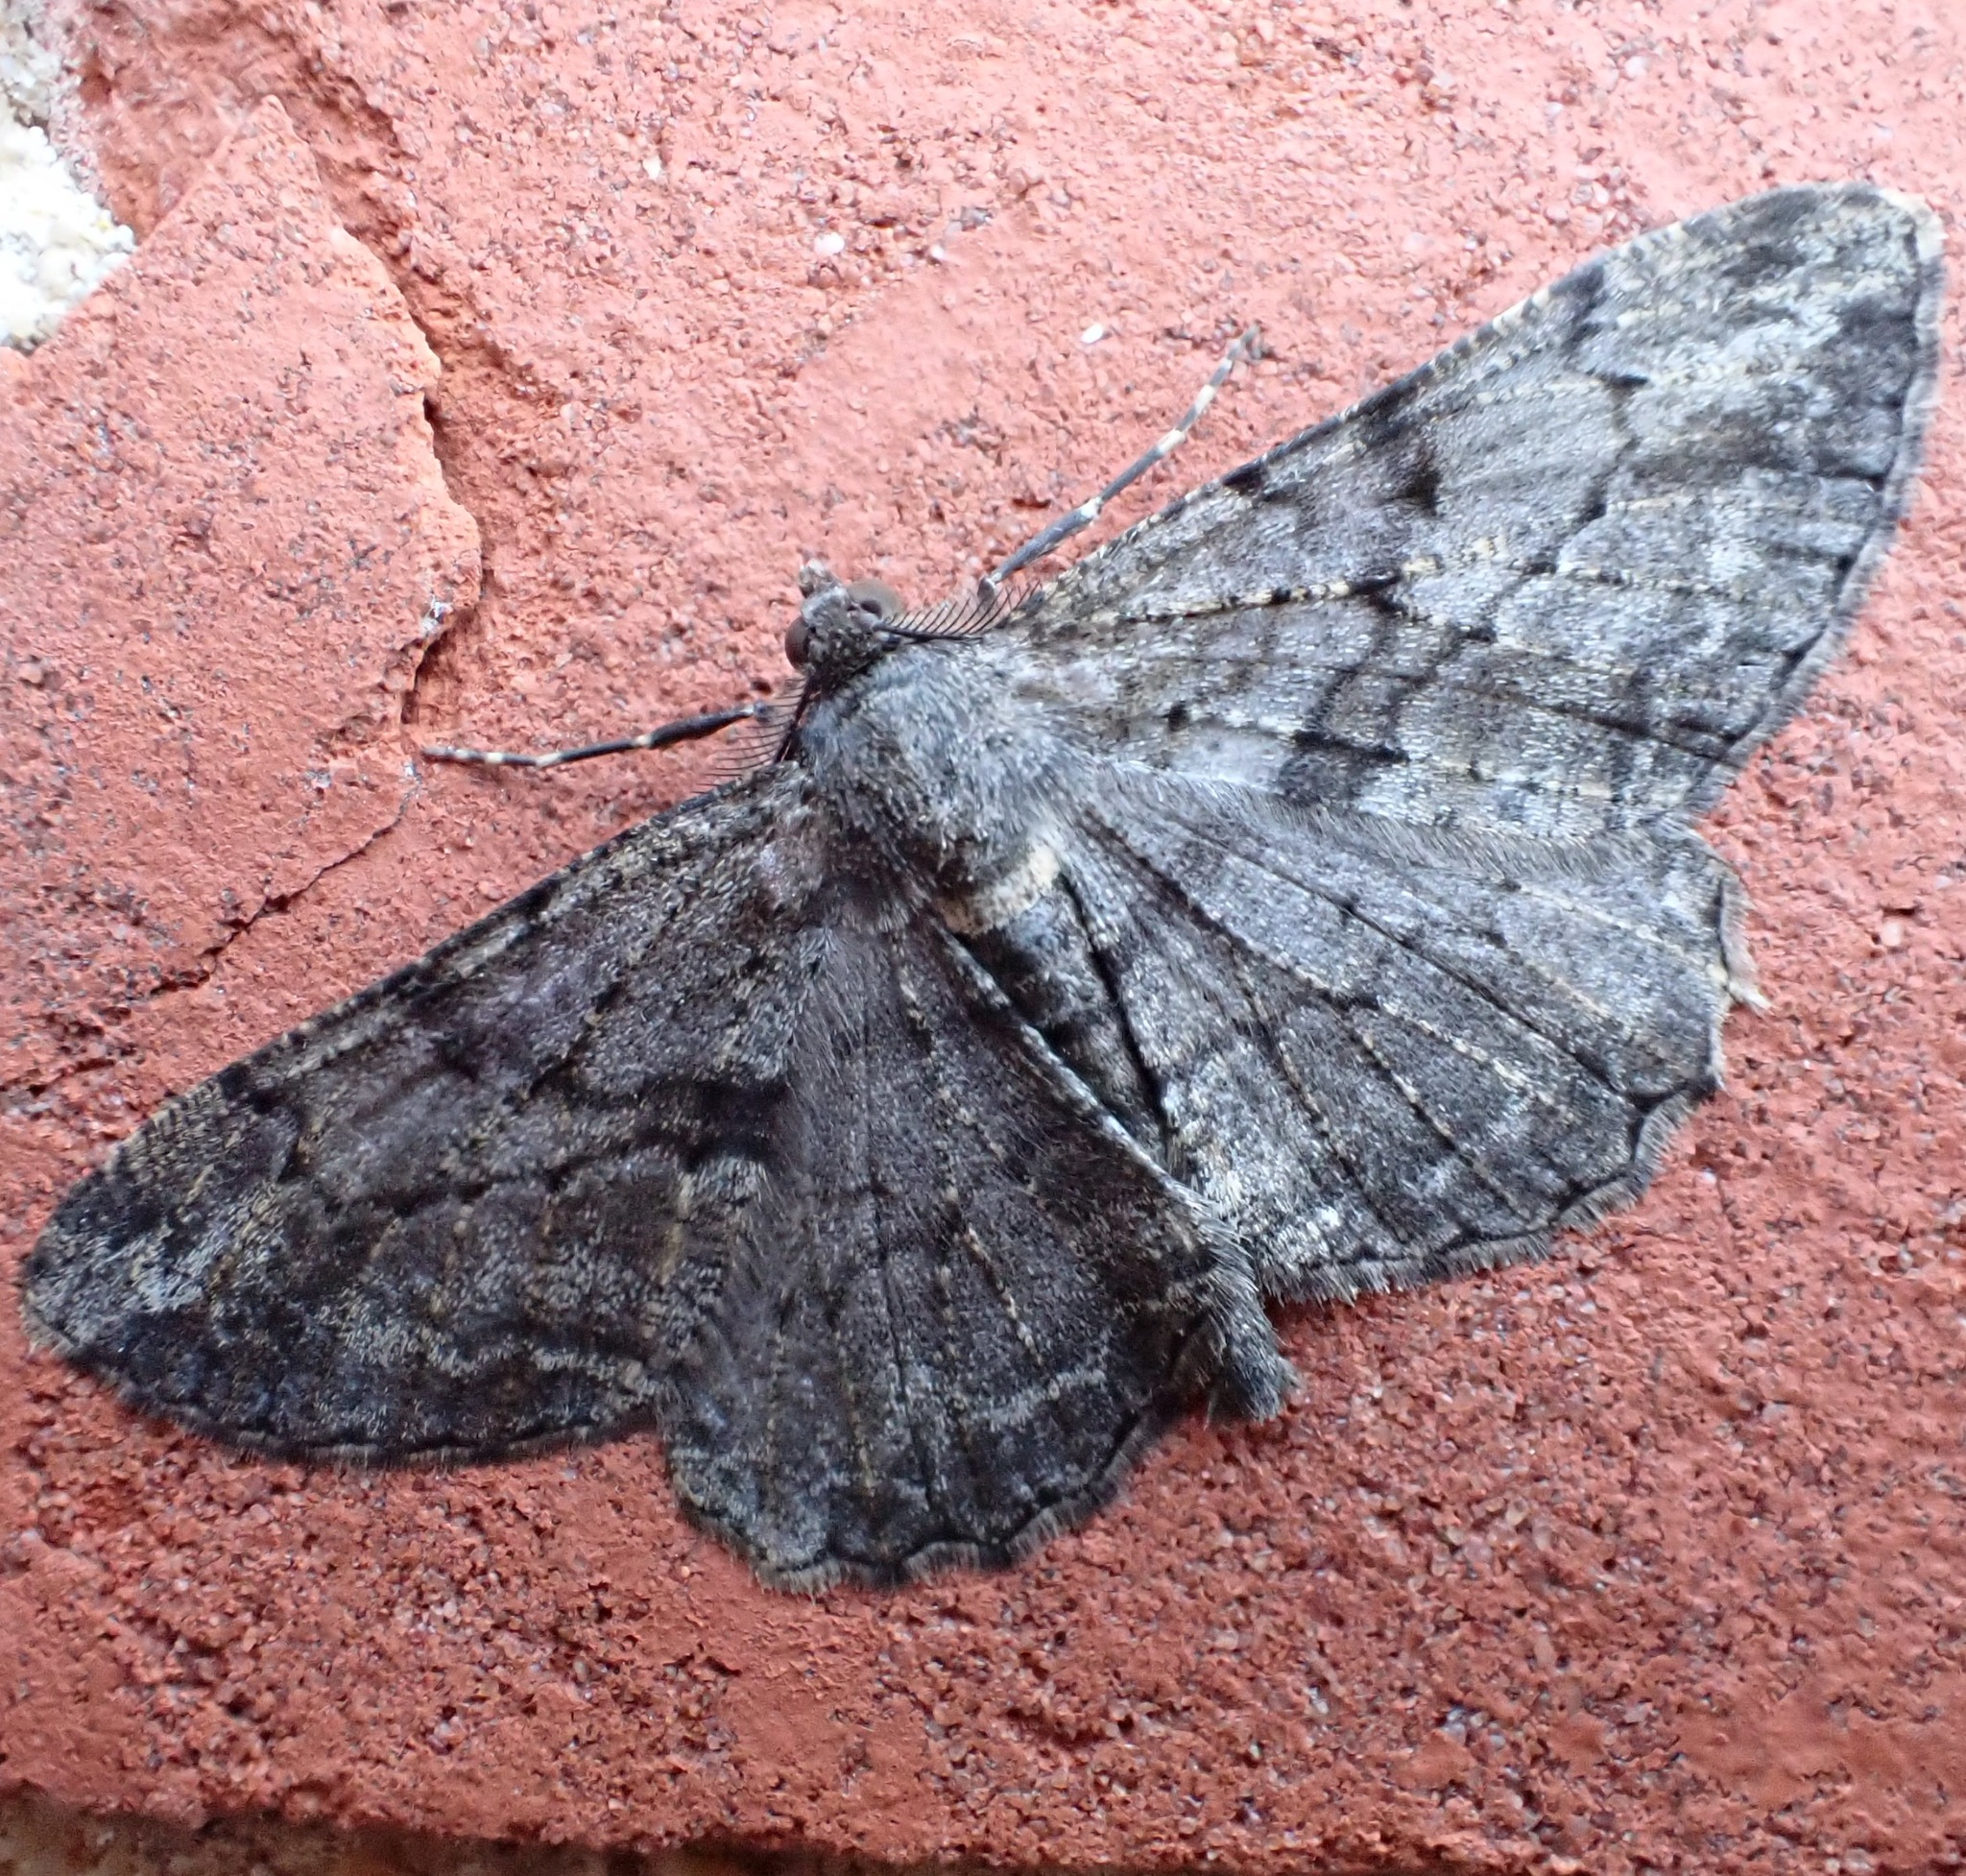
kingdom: Animalia
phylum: Arthropoda
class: Insecta
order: Lepidoptera
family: Geometridae
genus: Peribatodes
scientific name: Peribatodes rhomboidaria
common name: Willow beauty
